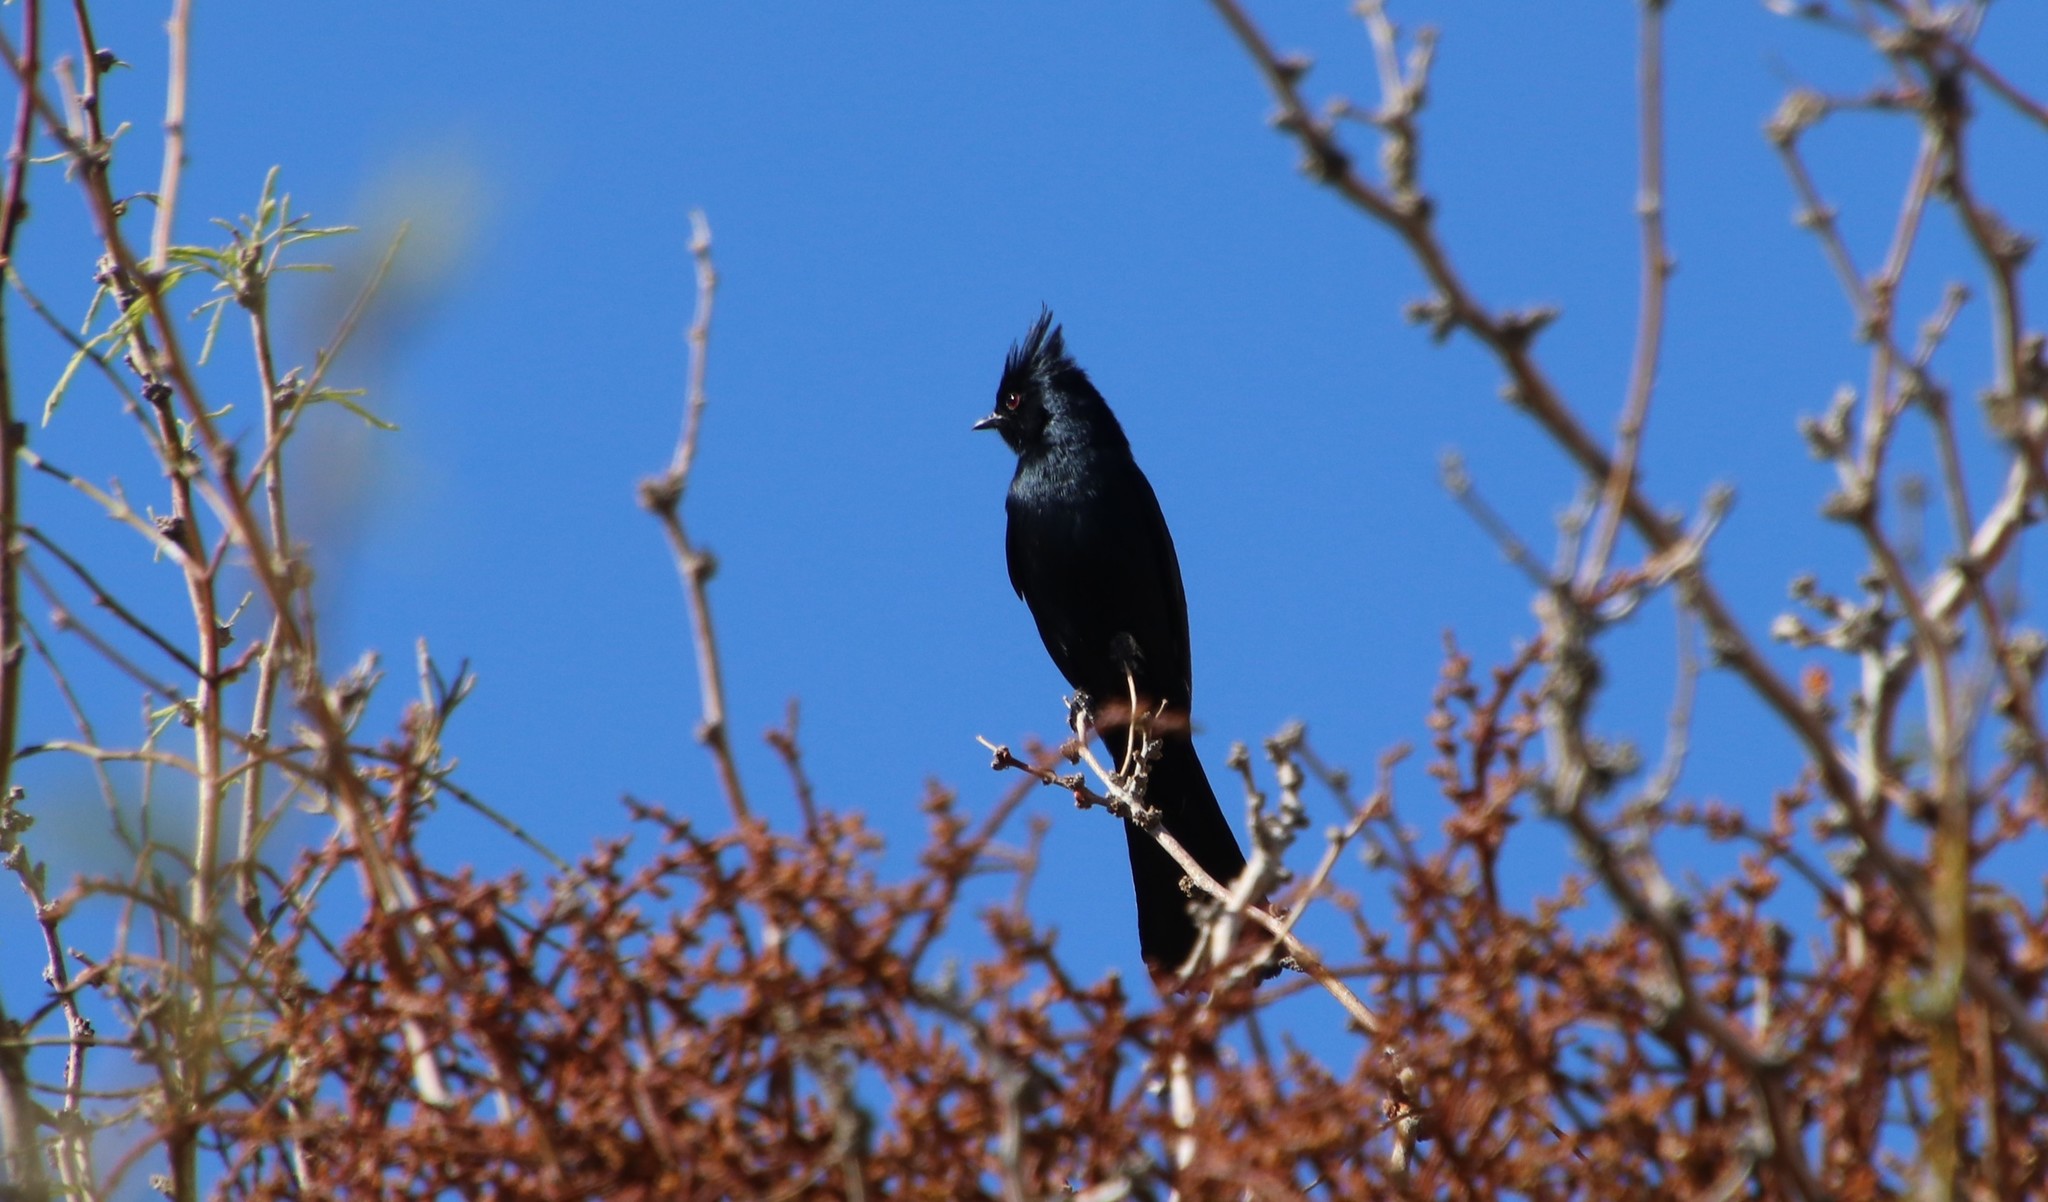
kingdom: Animalia
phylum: Chordata
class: Aves
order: Passeriformes
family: Ptilogonatidae
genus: Phainopepla
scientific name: Phainopepla nitens
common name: Phainopepla
